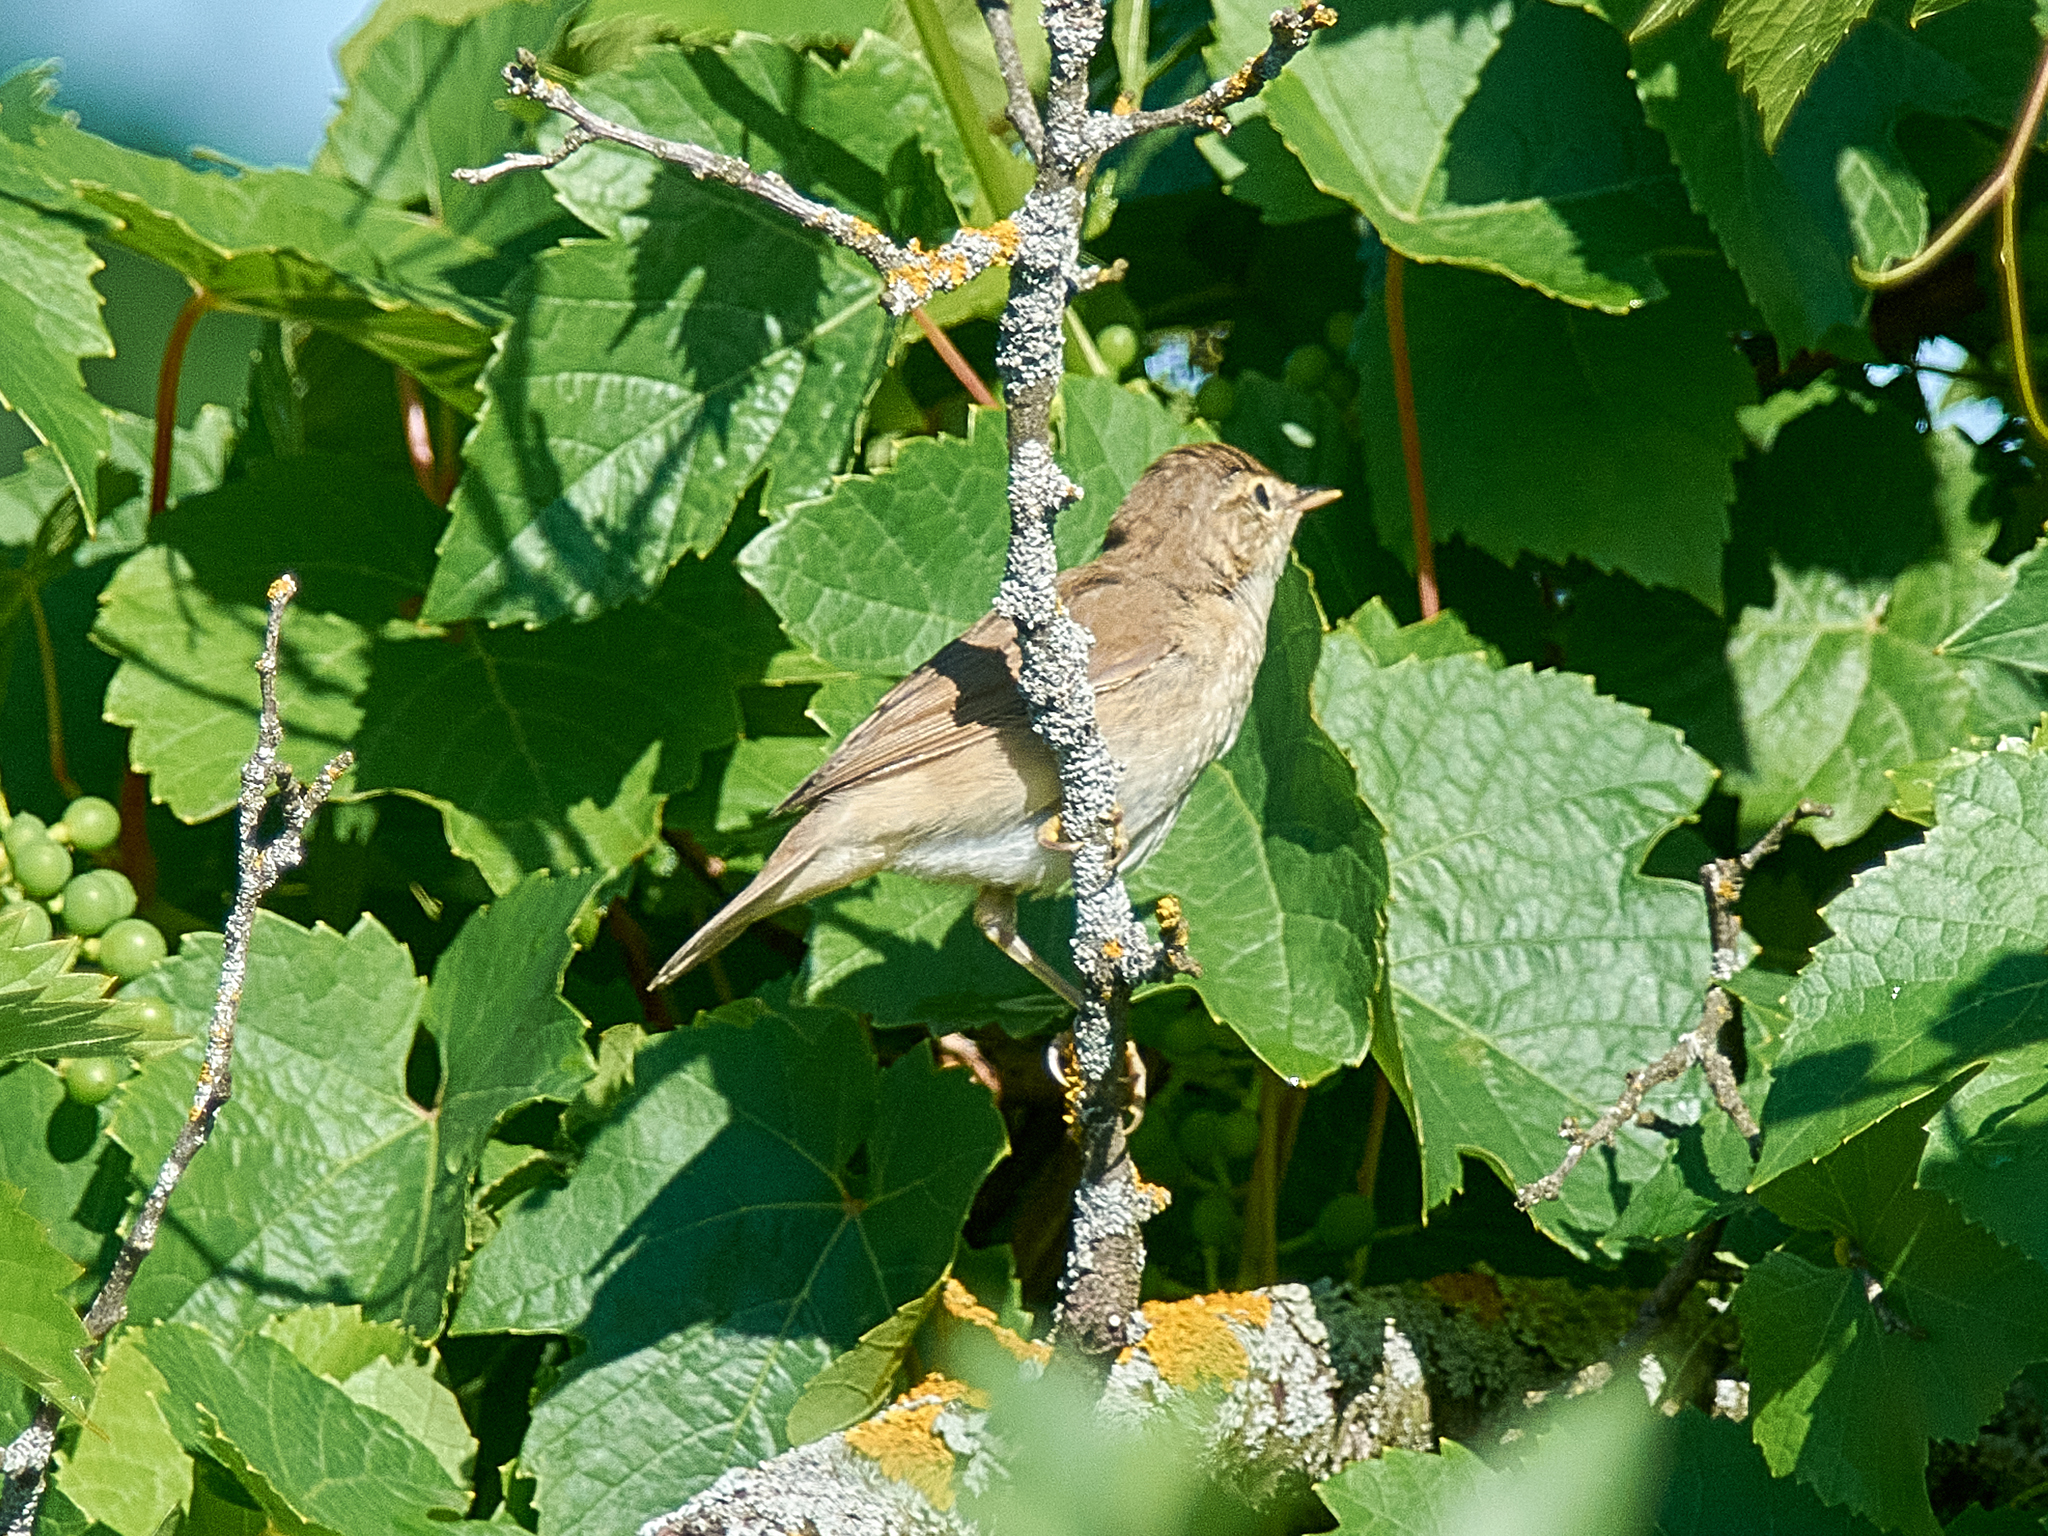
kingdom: Animalia
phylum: Chordata
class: Aves
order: Passeriformes
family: Acrocephalidae
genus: Acrocephalus
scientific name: Acrocephalus dumetorum
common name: Blyth's reed warbler
